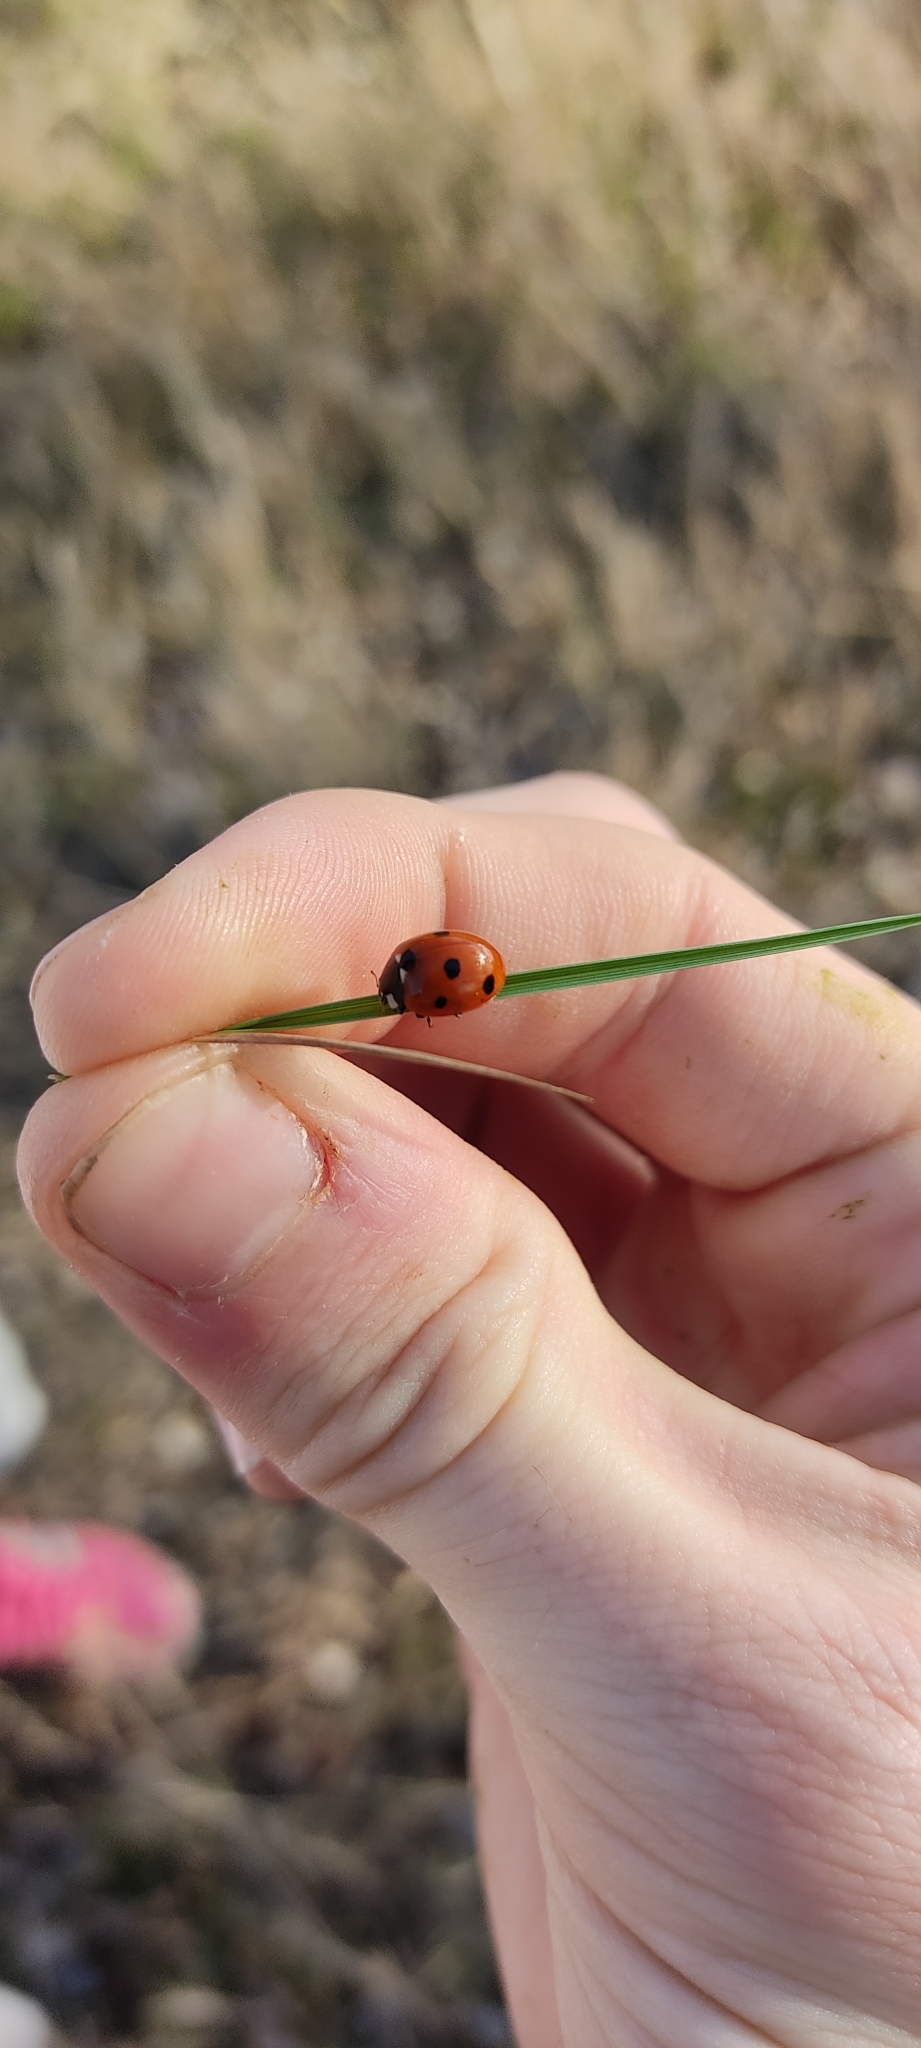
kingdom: Animalia
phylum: Arthropoda
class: Insecta
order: Coleoptera
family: Coccinellidae
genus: Coccinella
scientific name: Coccinella septempunctata
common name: Sevenspotted lady beetle
